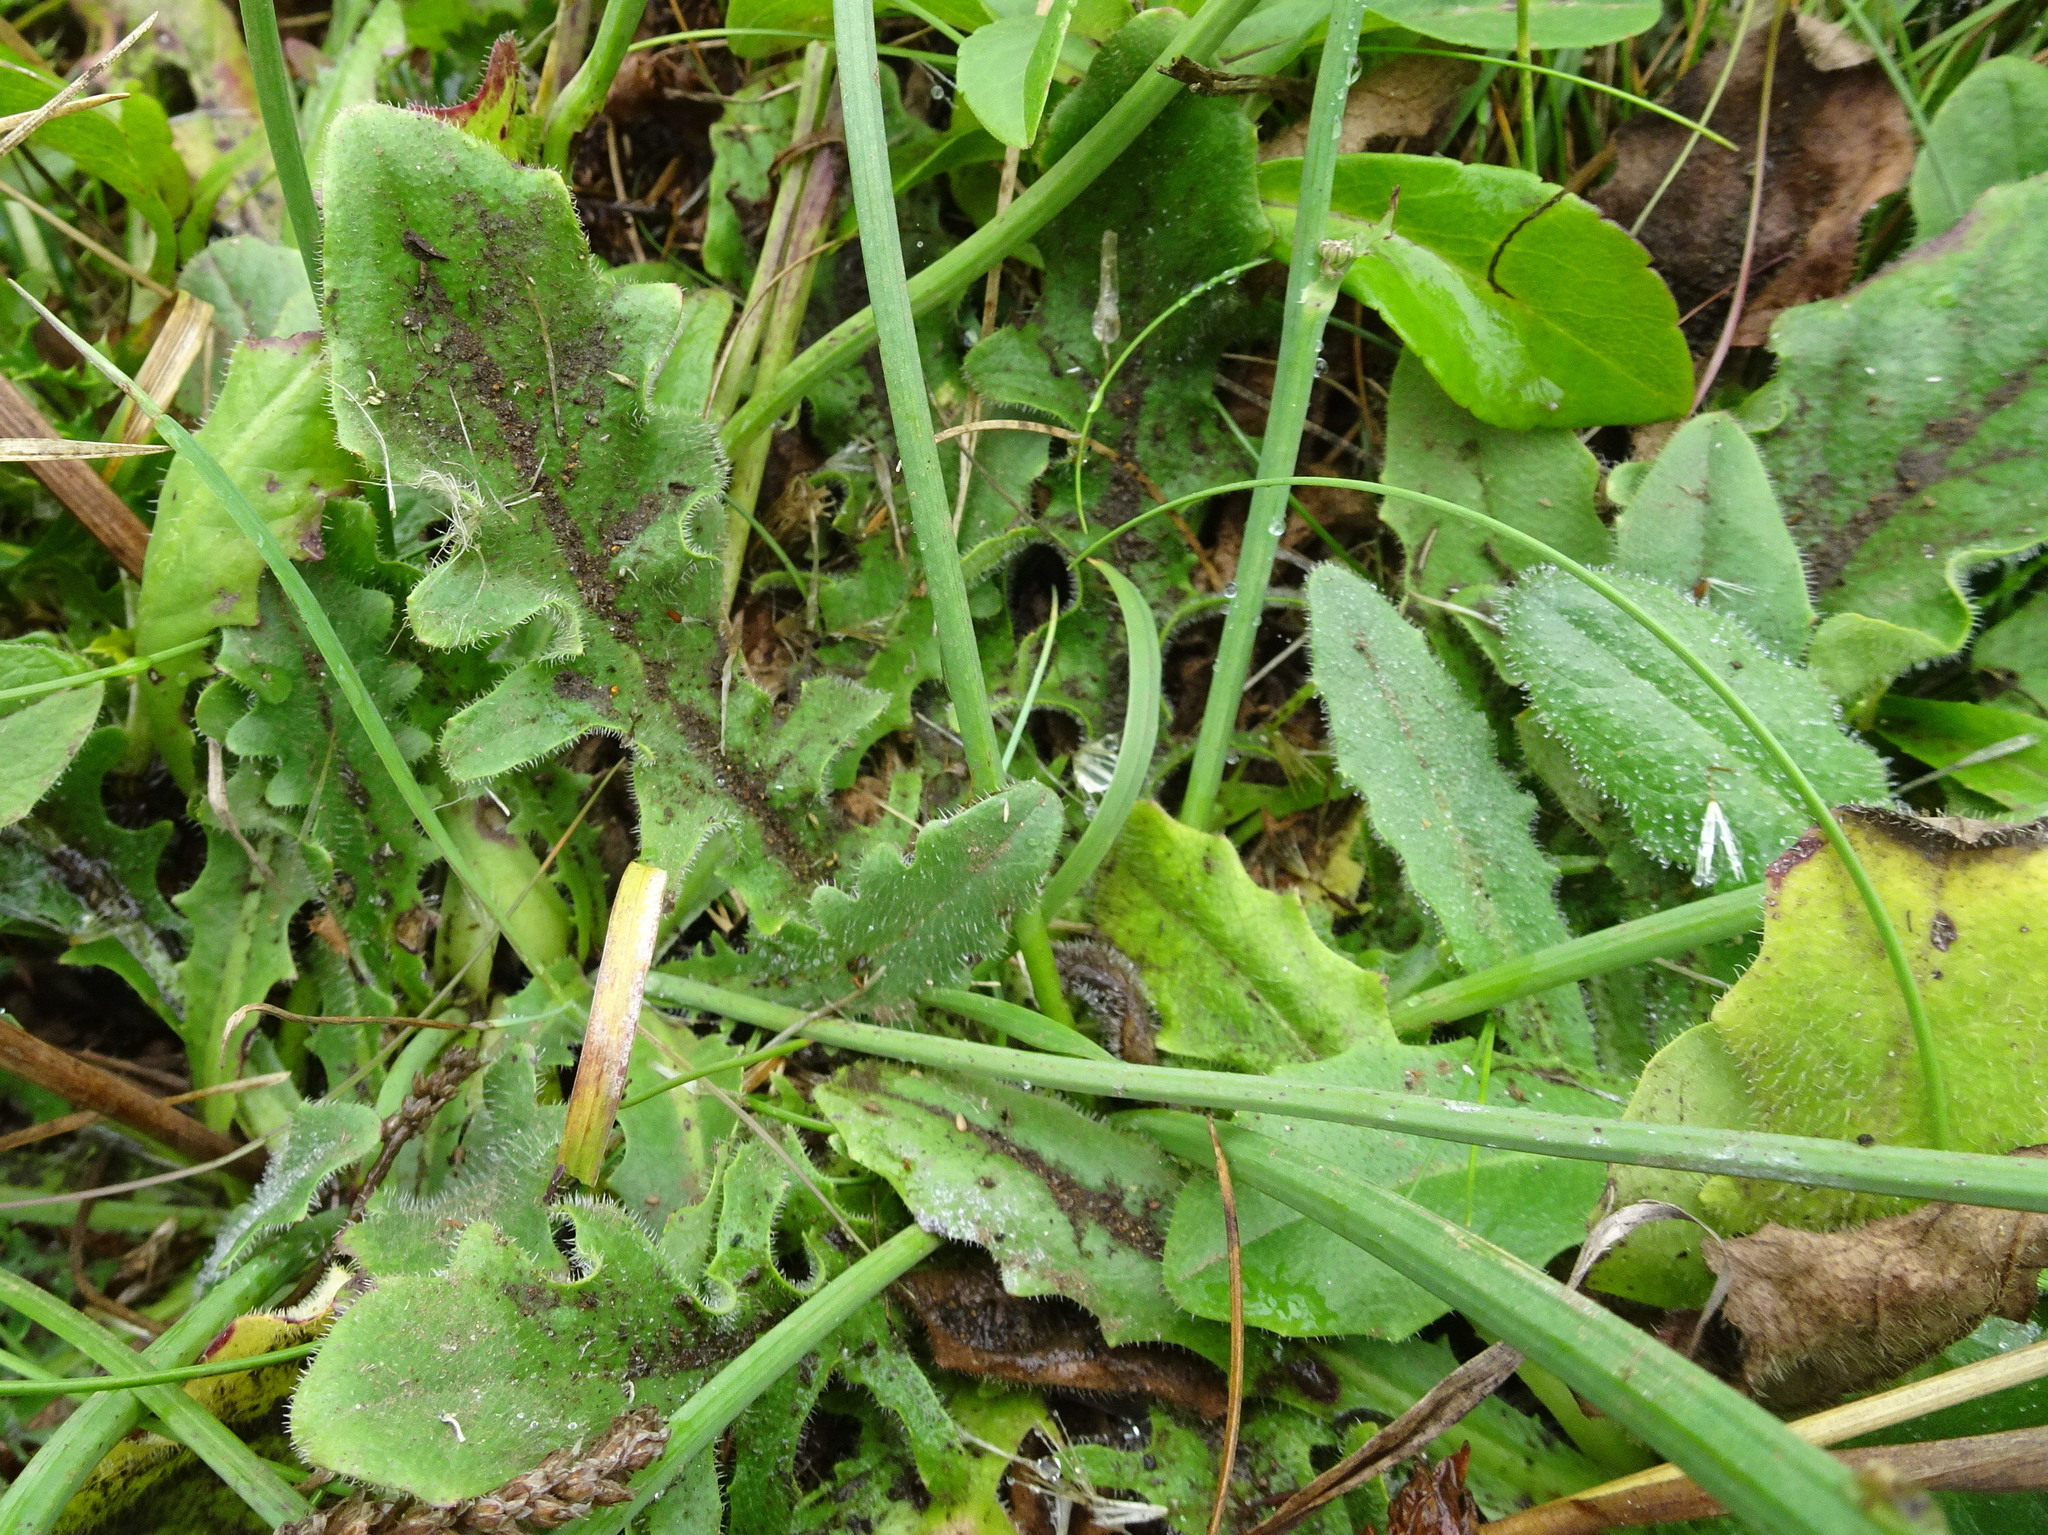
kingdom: Plantae
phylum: Tracheophyta
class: Magnoliopsida
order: Asterales
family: Asteraceae
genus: Hypochaeris
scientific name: Hypochaeris radicata
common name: Flatweed
